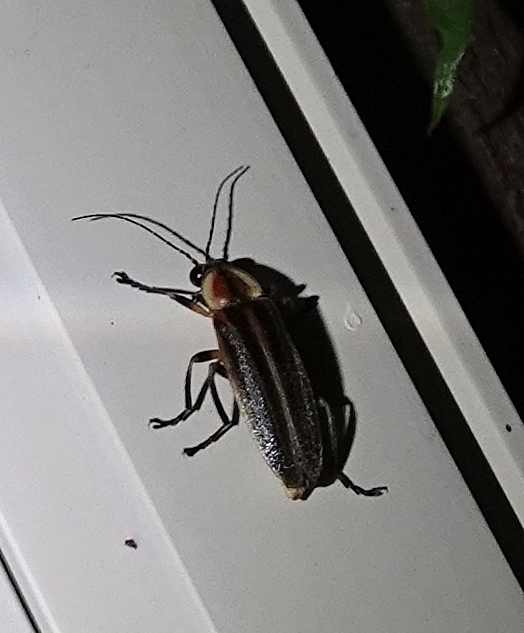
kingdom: Animalia
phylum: Arthropoda
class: Insecta
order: Coleoptera
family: Lampyridae
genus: Photuris
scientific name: Photuris
